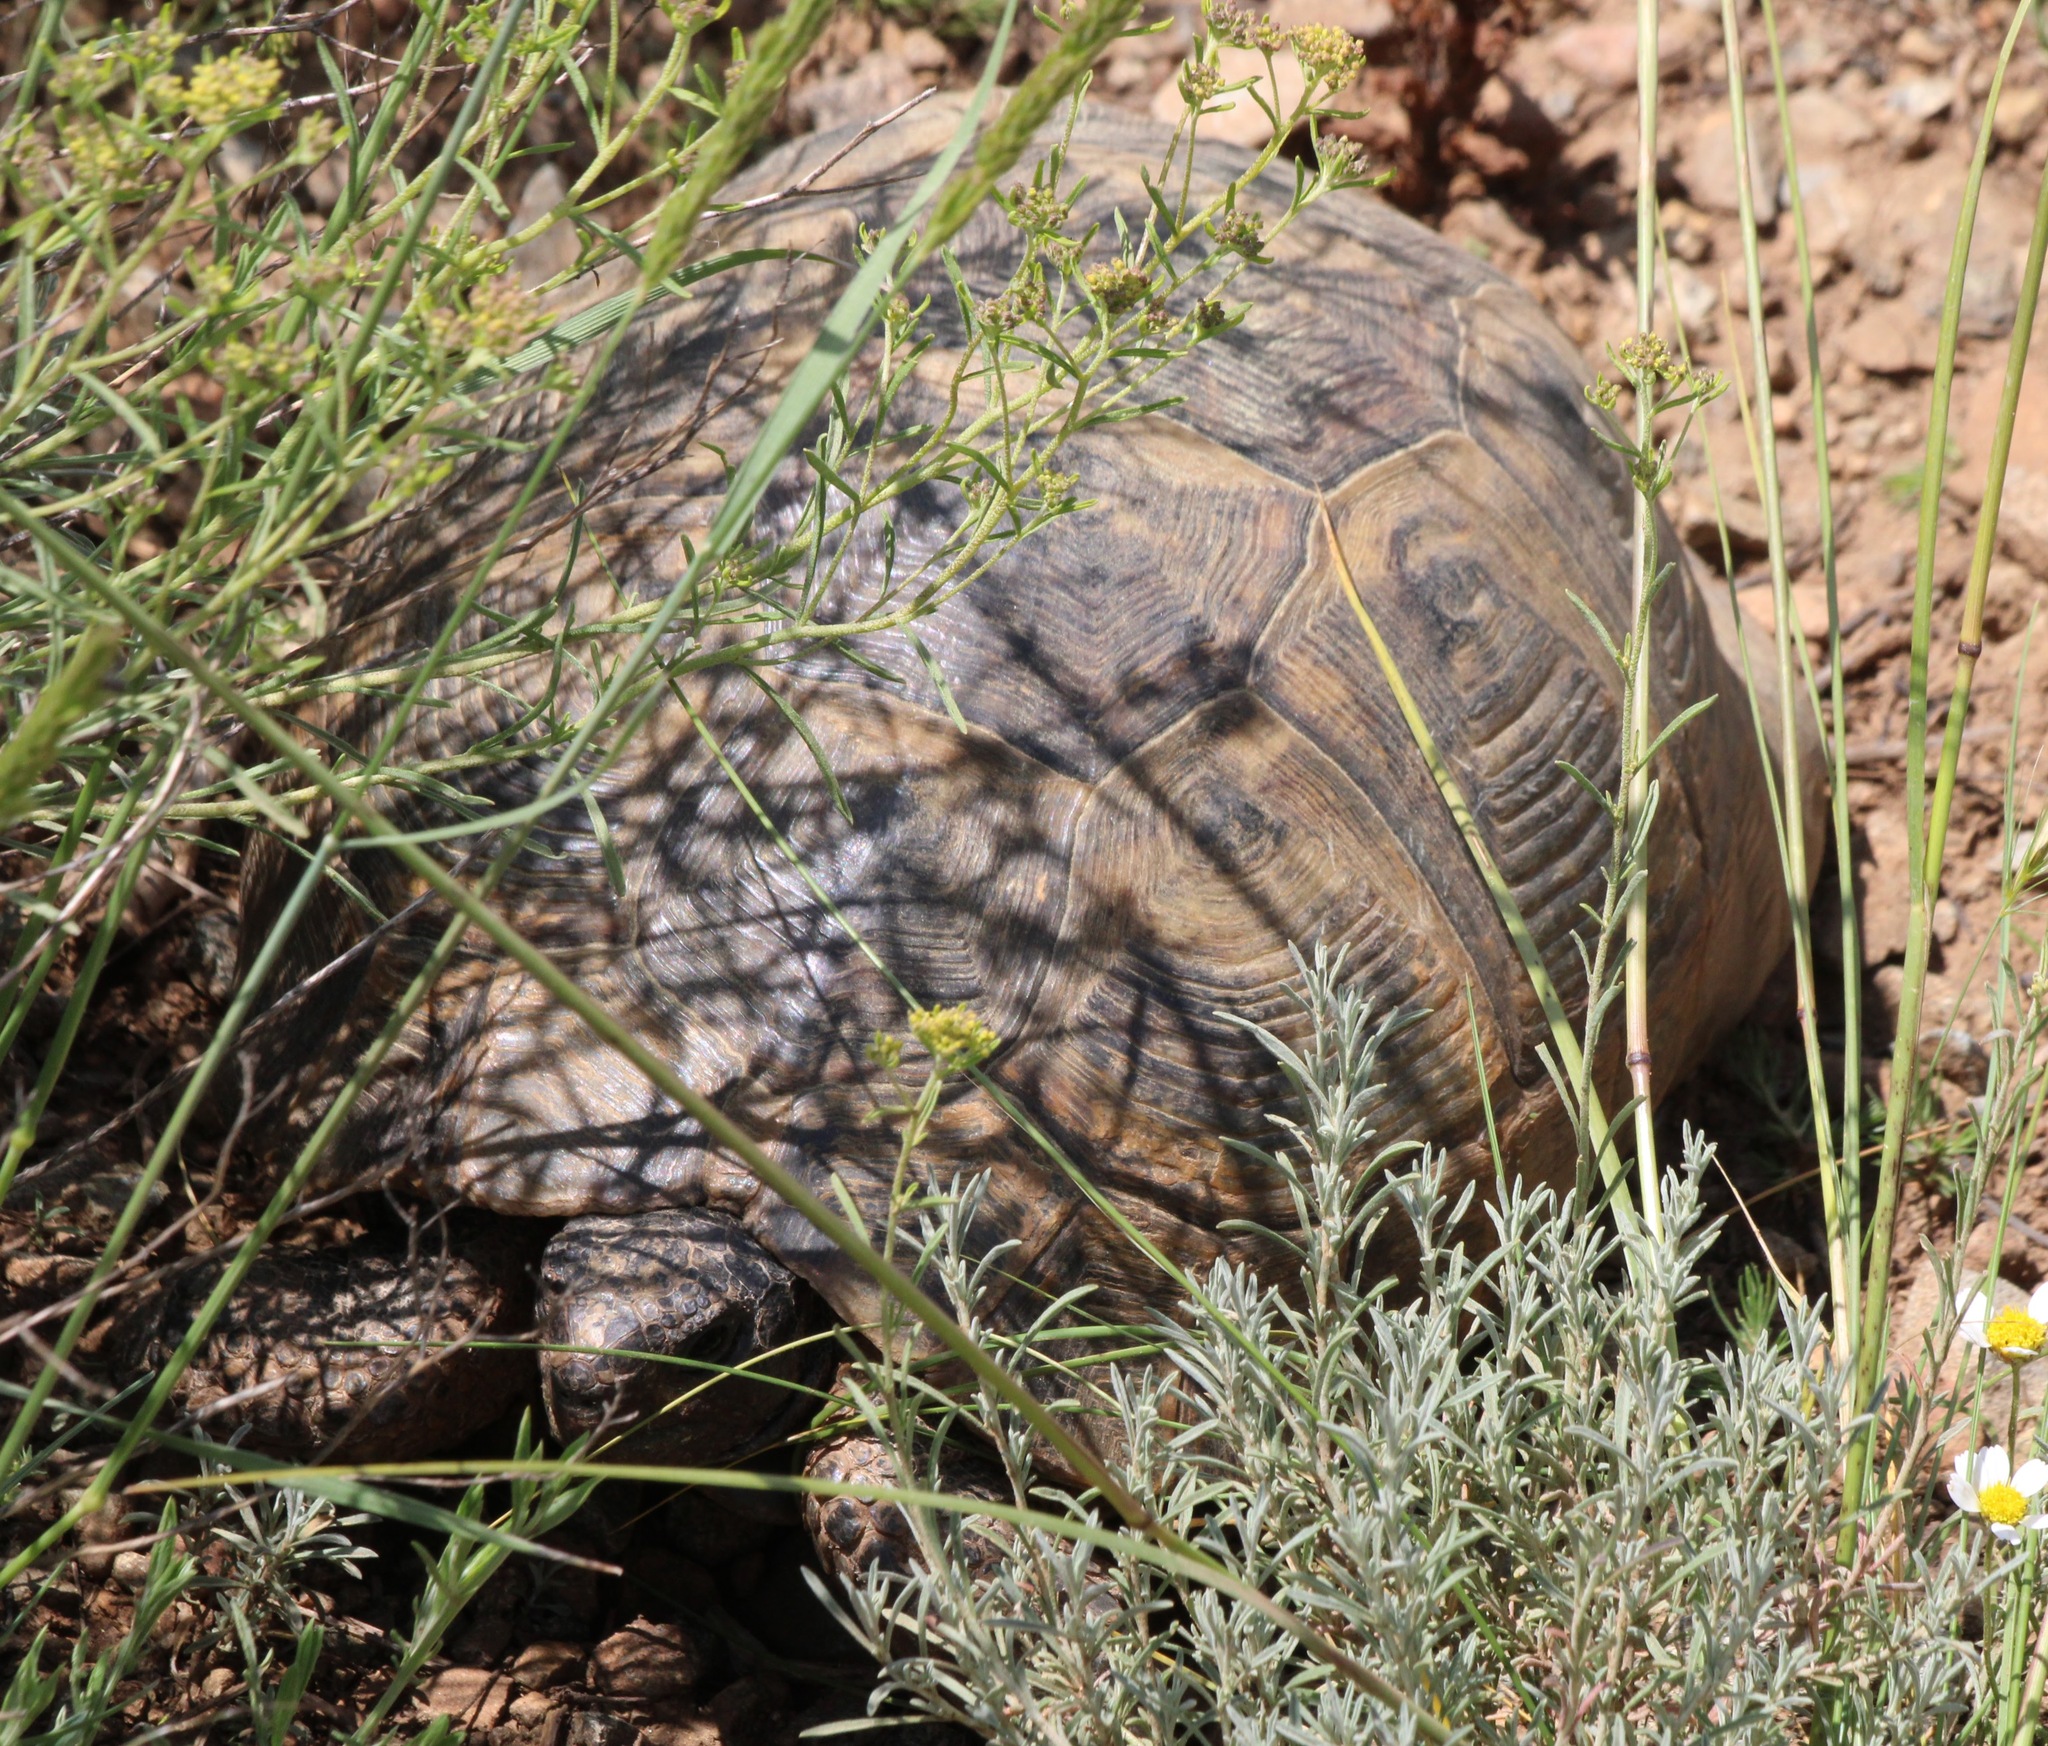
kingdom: Animalia
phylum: Chordata
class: Testudines
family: Testudinidae
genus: Testudo
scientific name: Testudo graeca
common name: Common tortoise
